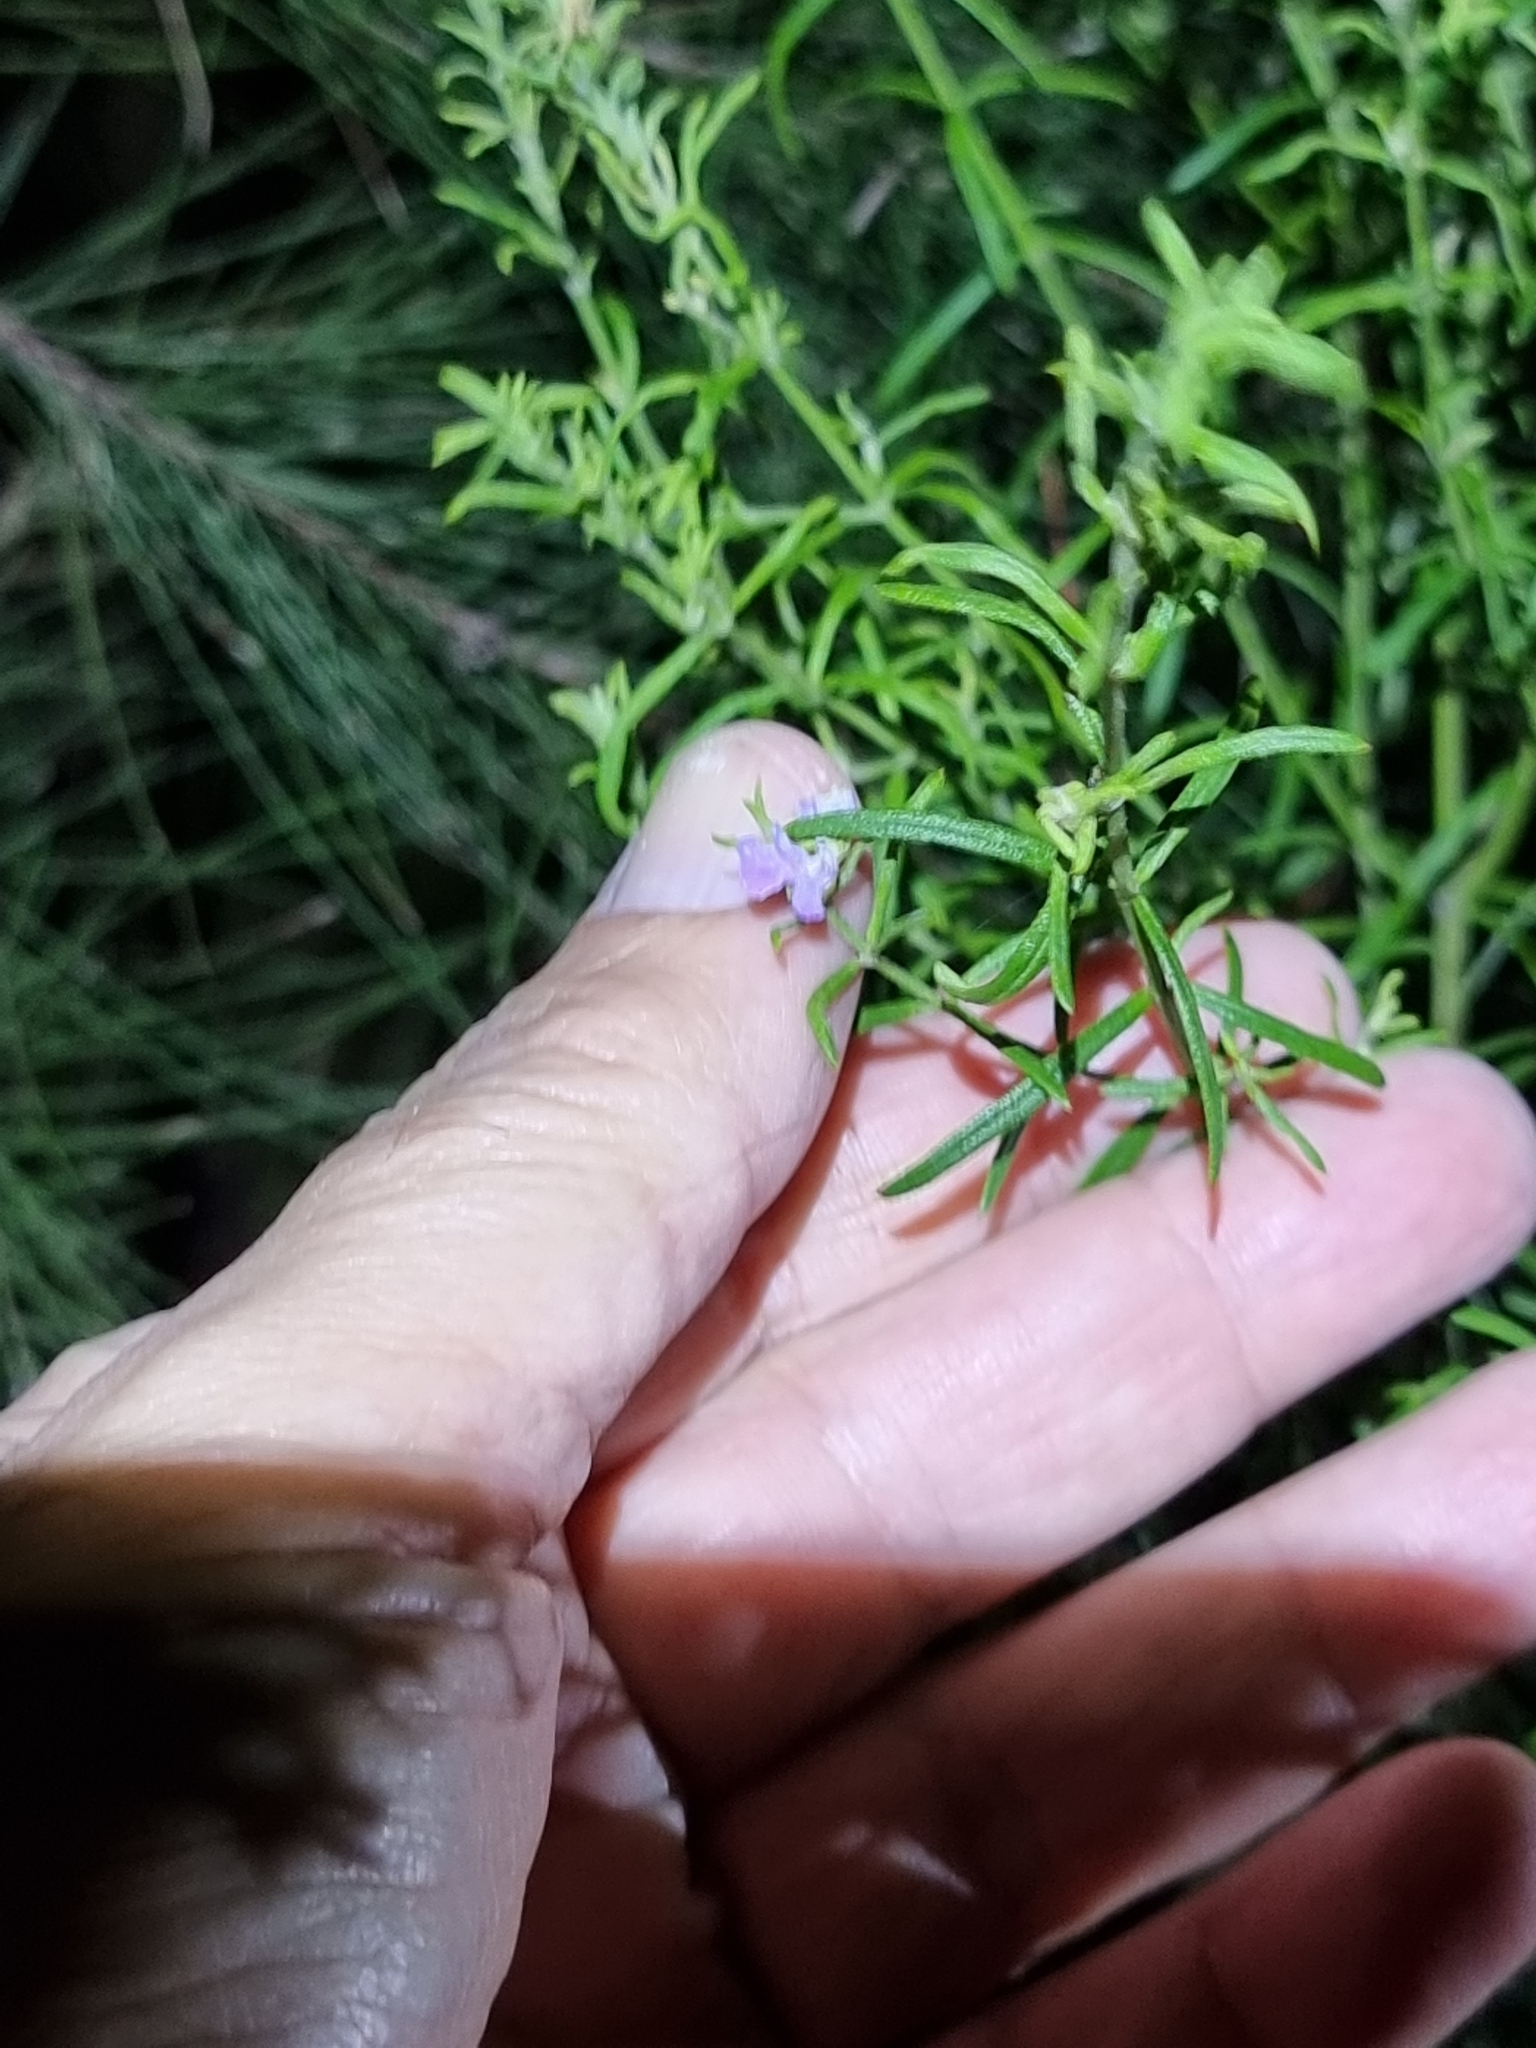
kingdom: Plantae
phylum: Tracheophyta
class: Magnoliopsida
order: Lamiales
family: Lamiaceae
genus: Westringia
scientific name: Westringia eremicola
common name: Slender western-rosemary
